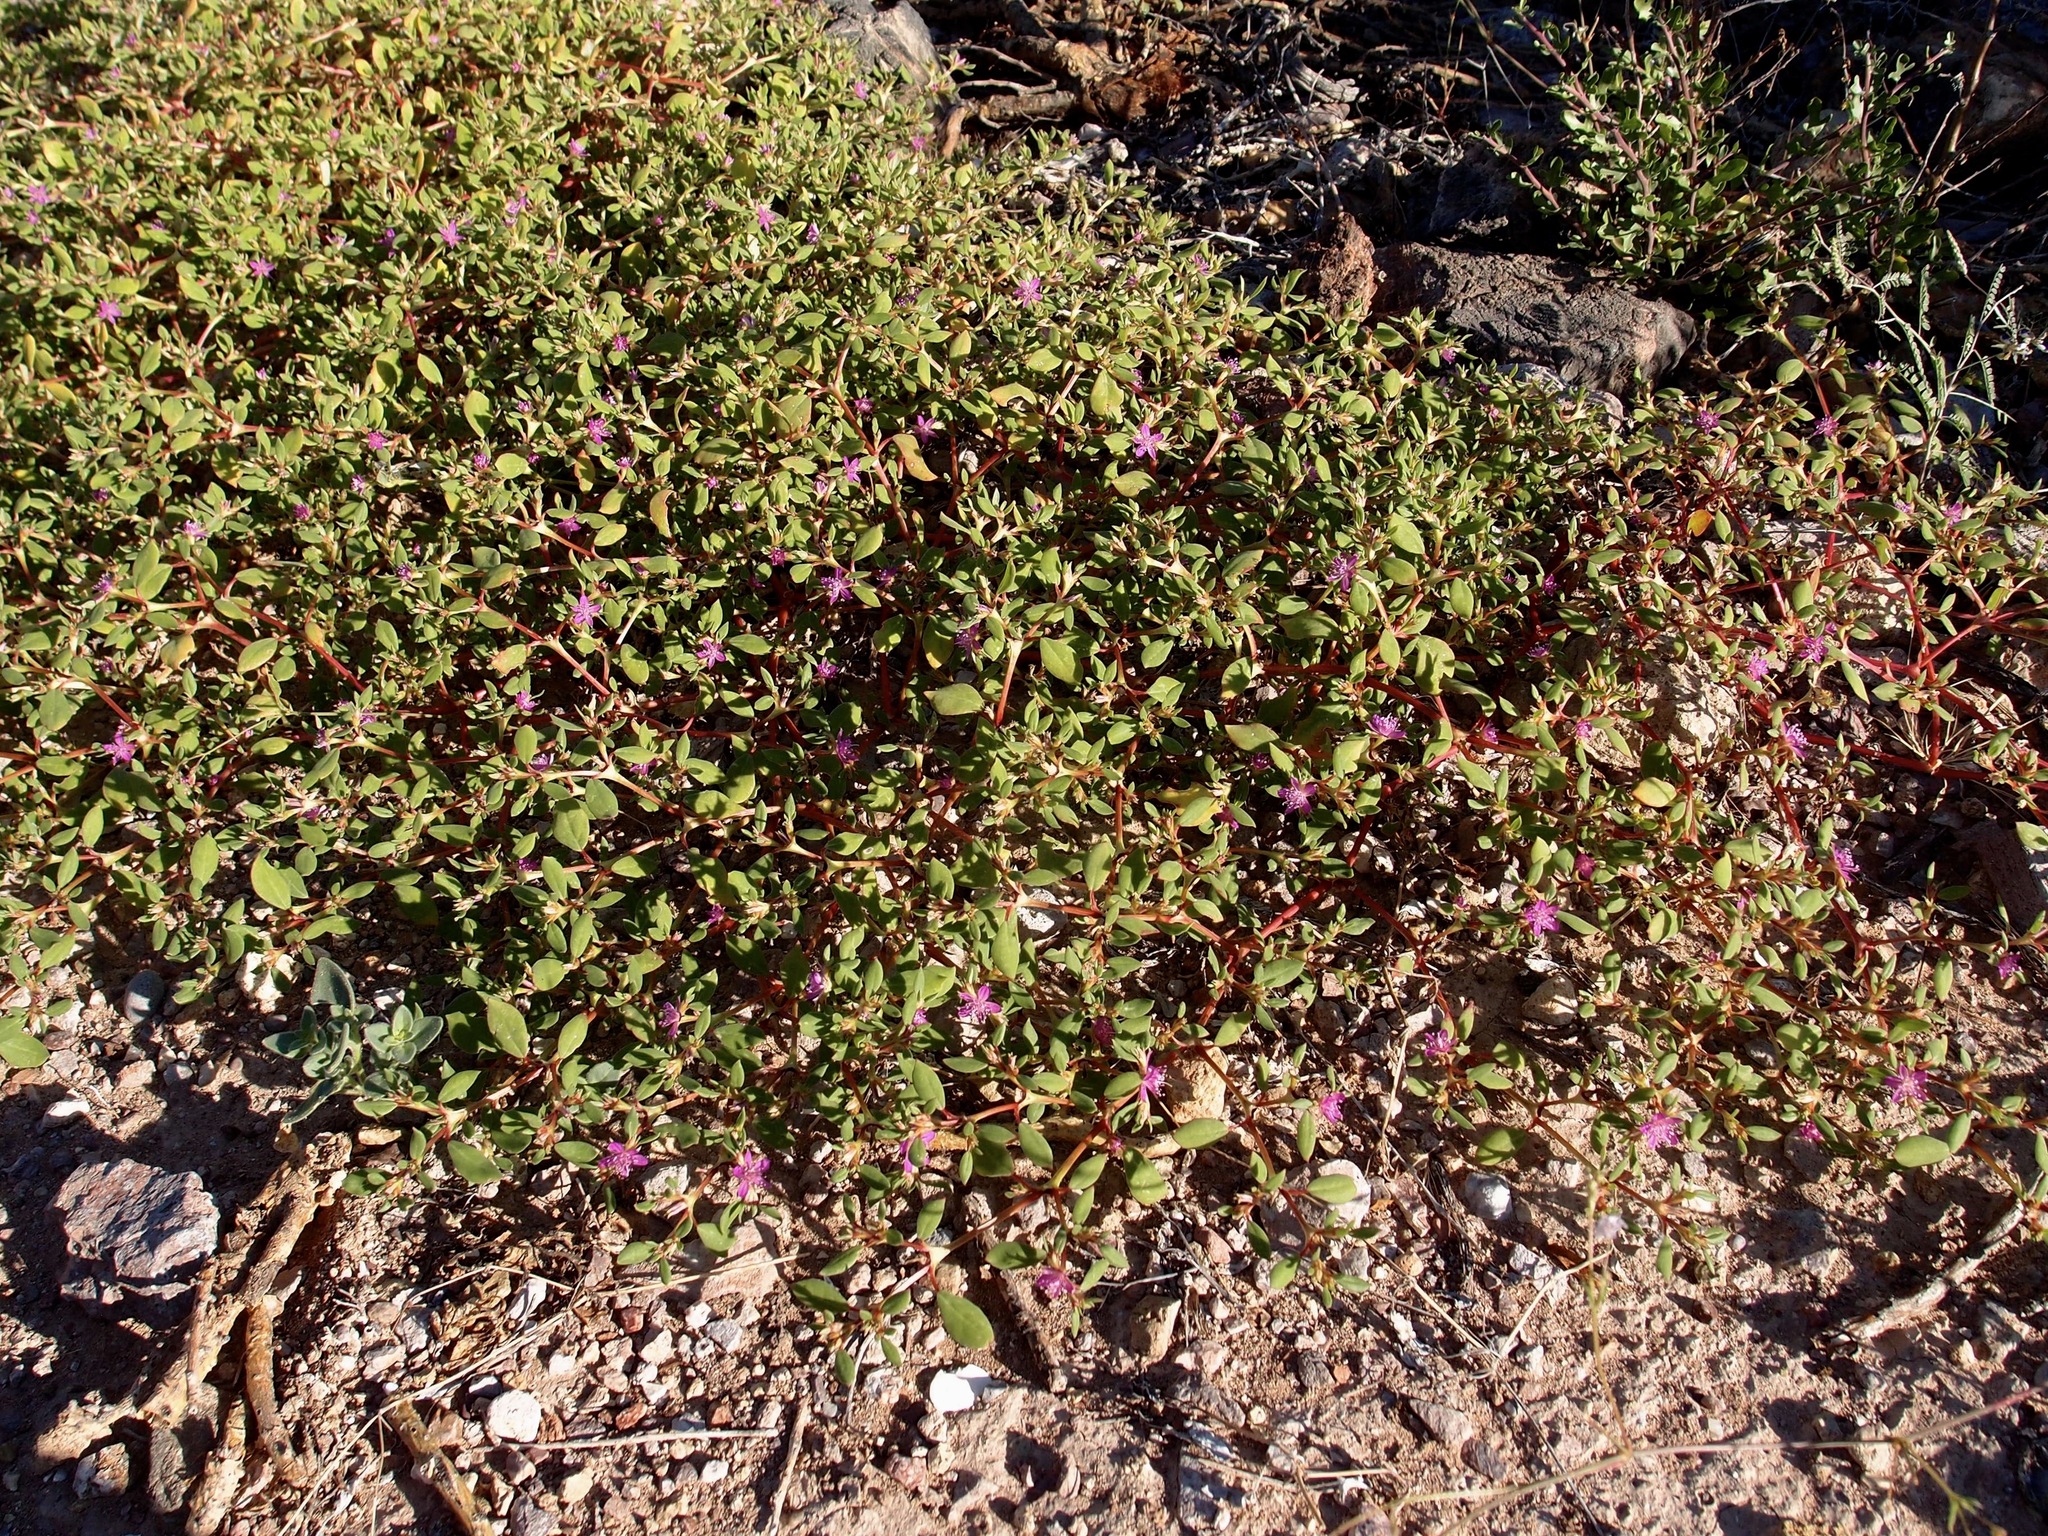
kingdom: Plantae
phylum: Tracheophyta
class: Magnoliopsida
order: Caryophyllales
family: Aizoaceae
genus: Trianthema
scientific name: Trianthema portulacastrum
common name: Desert horsepurslane
